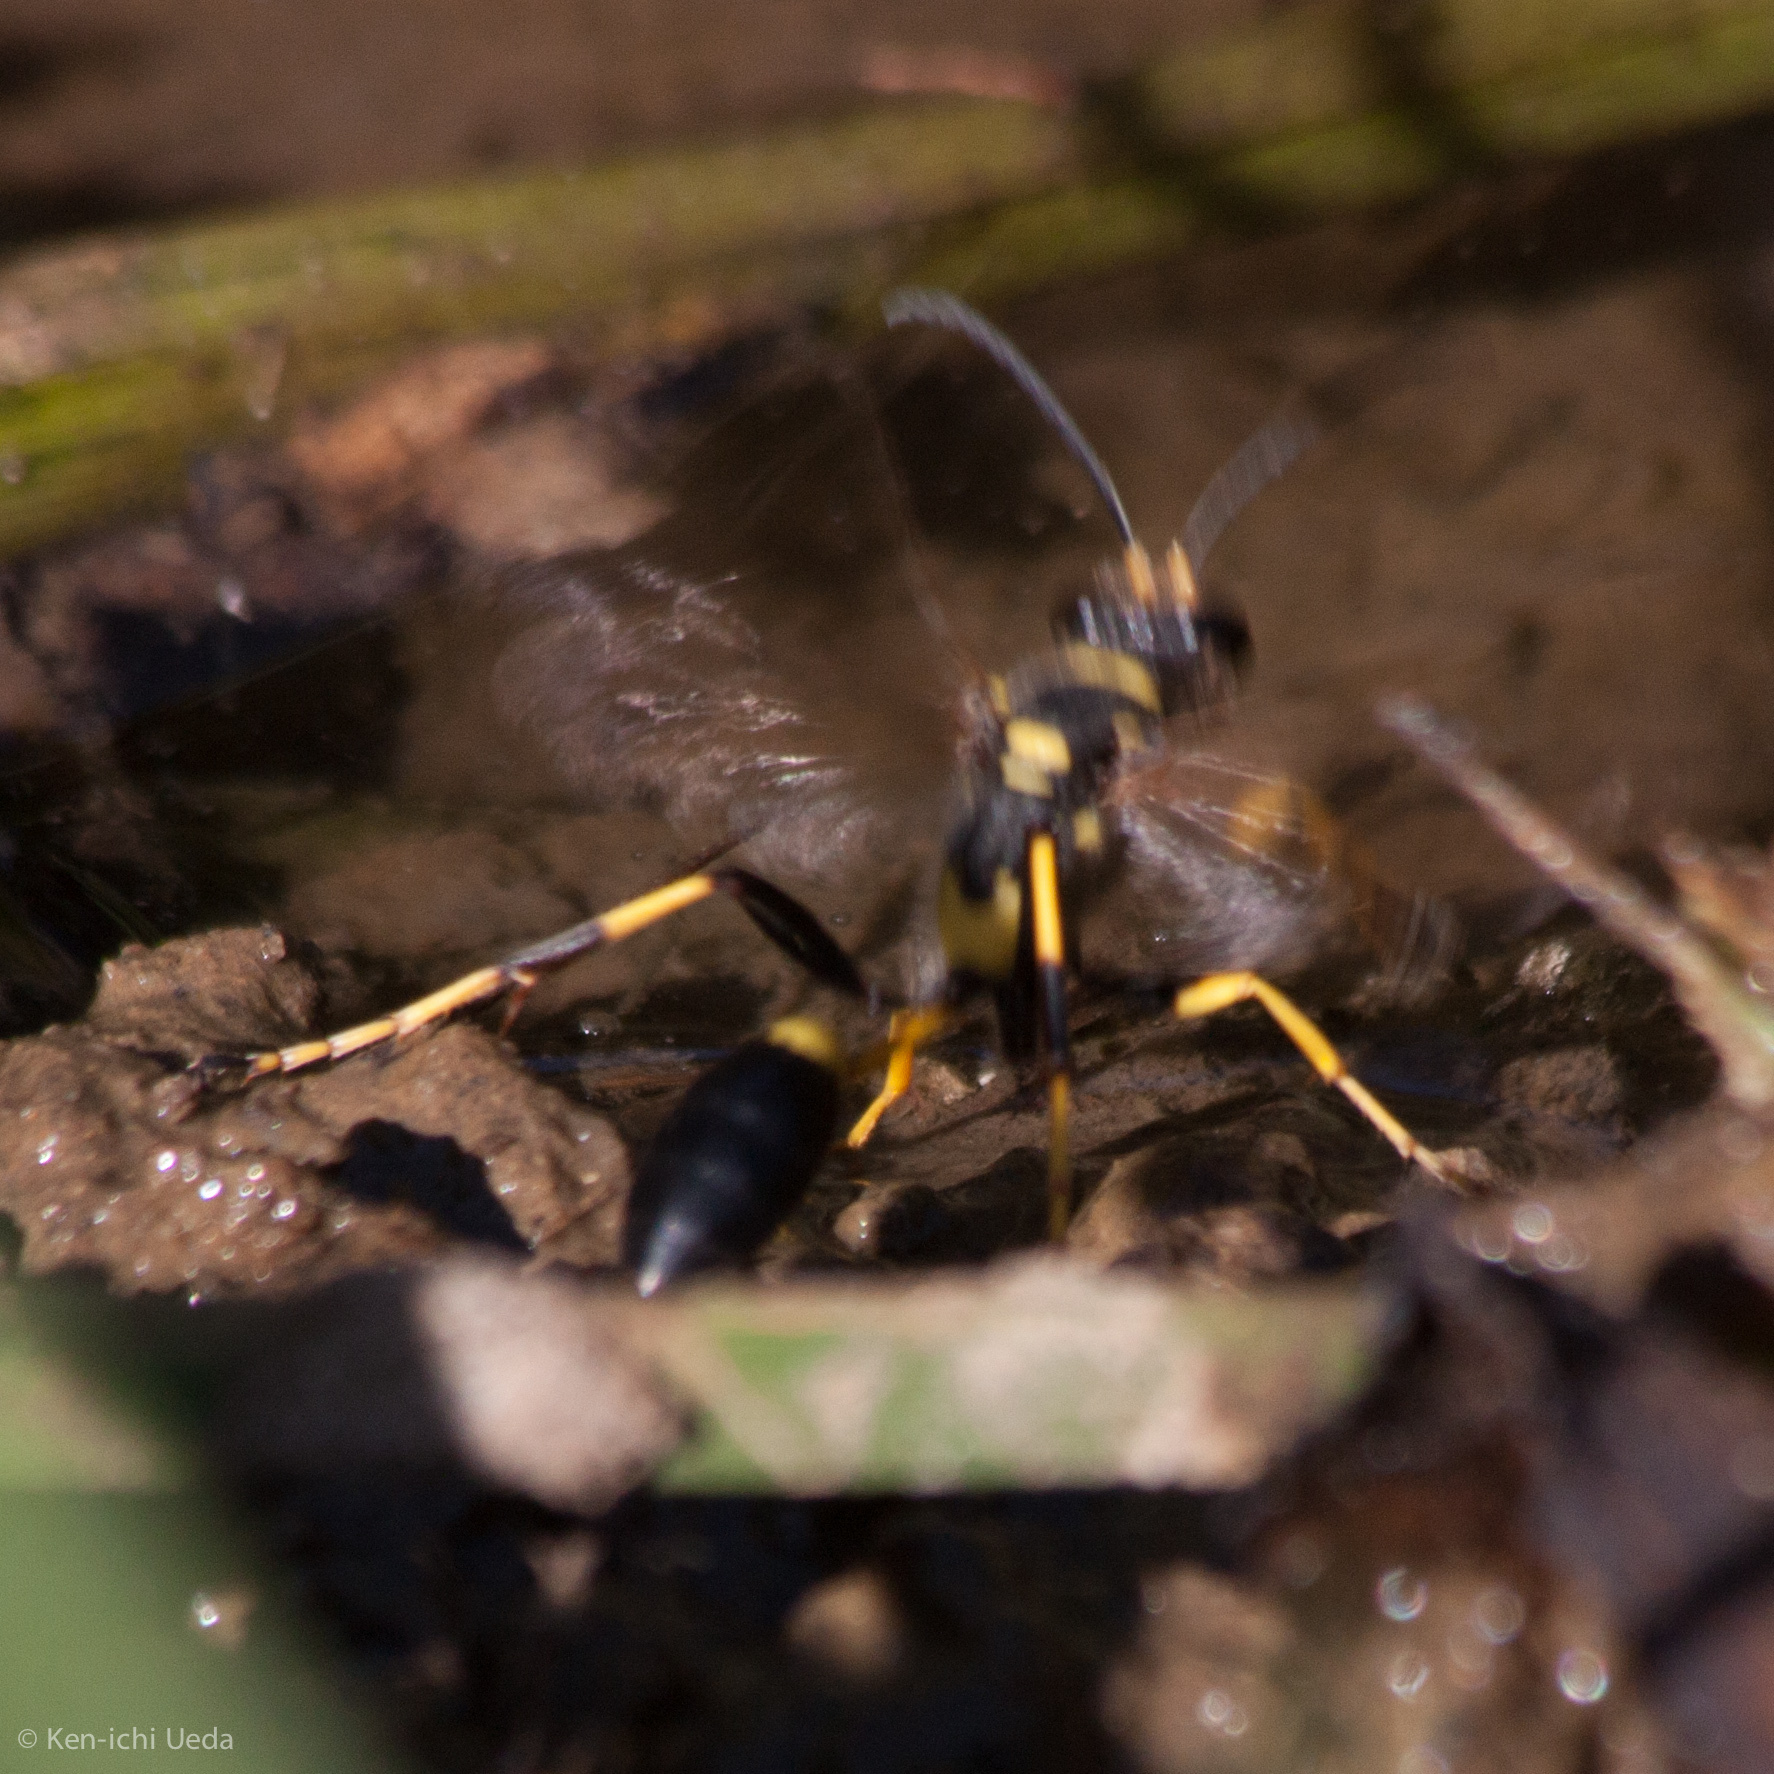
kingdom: Animalia
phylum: Arthropoda
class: Insecta
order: Hymenoptera
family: Sphecidae
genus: Sceliphron
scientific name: Sceliphron caementarium
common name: Mud dauber
